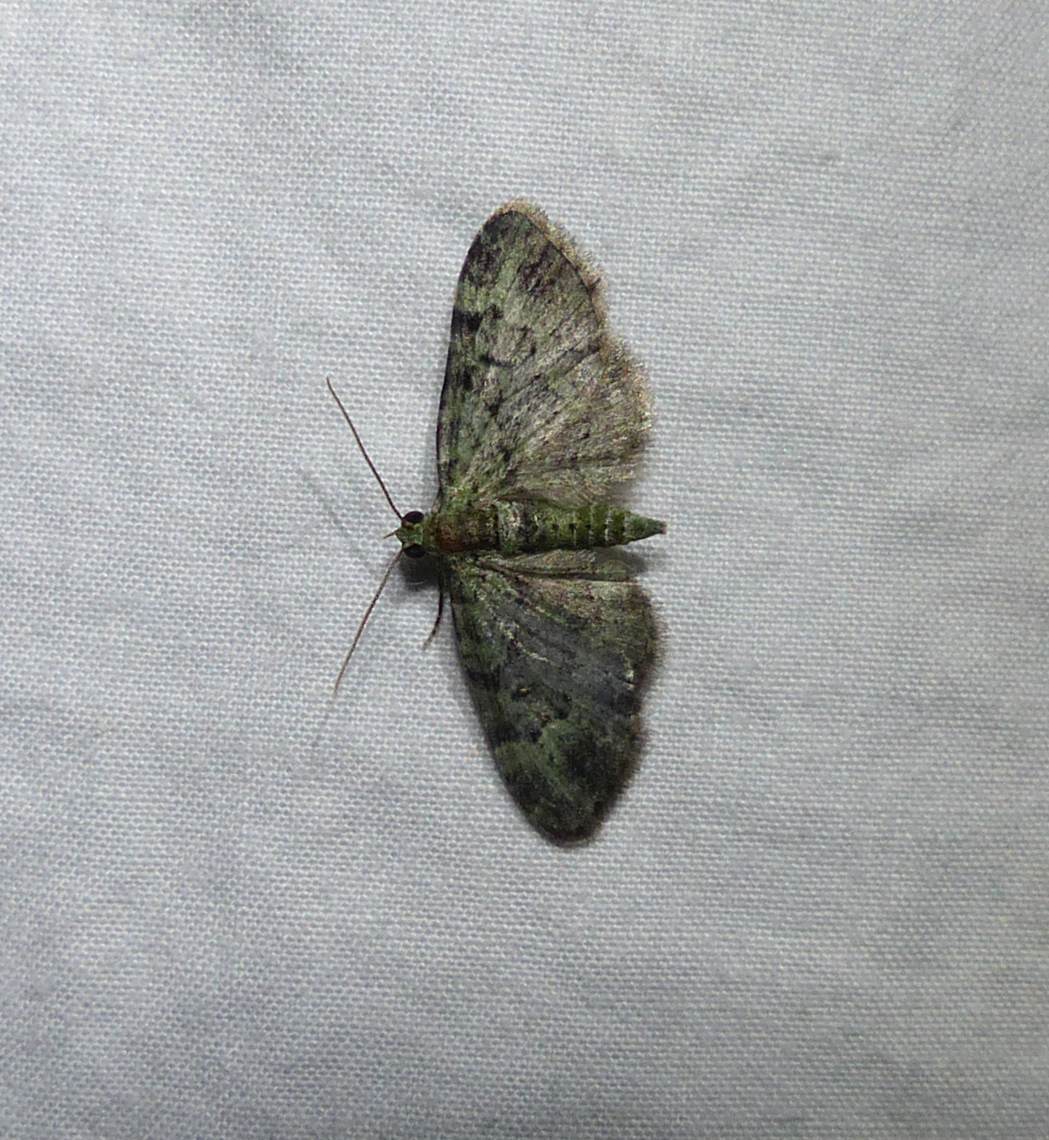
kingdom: Animalia
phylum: Arthropoda
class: Insecta
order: Lepidoptera
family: Geometridae
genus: Pasiphila
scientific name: Pasiphila rectangulata
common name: Green pug
